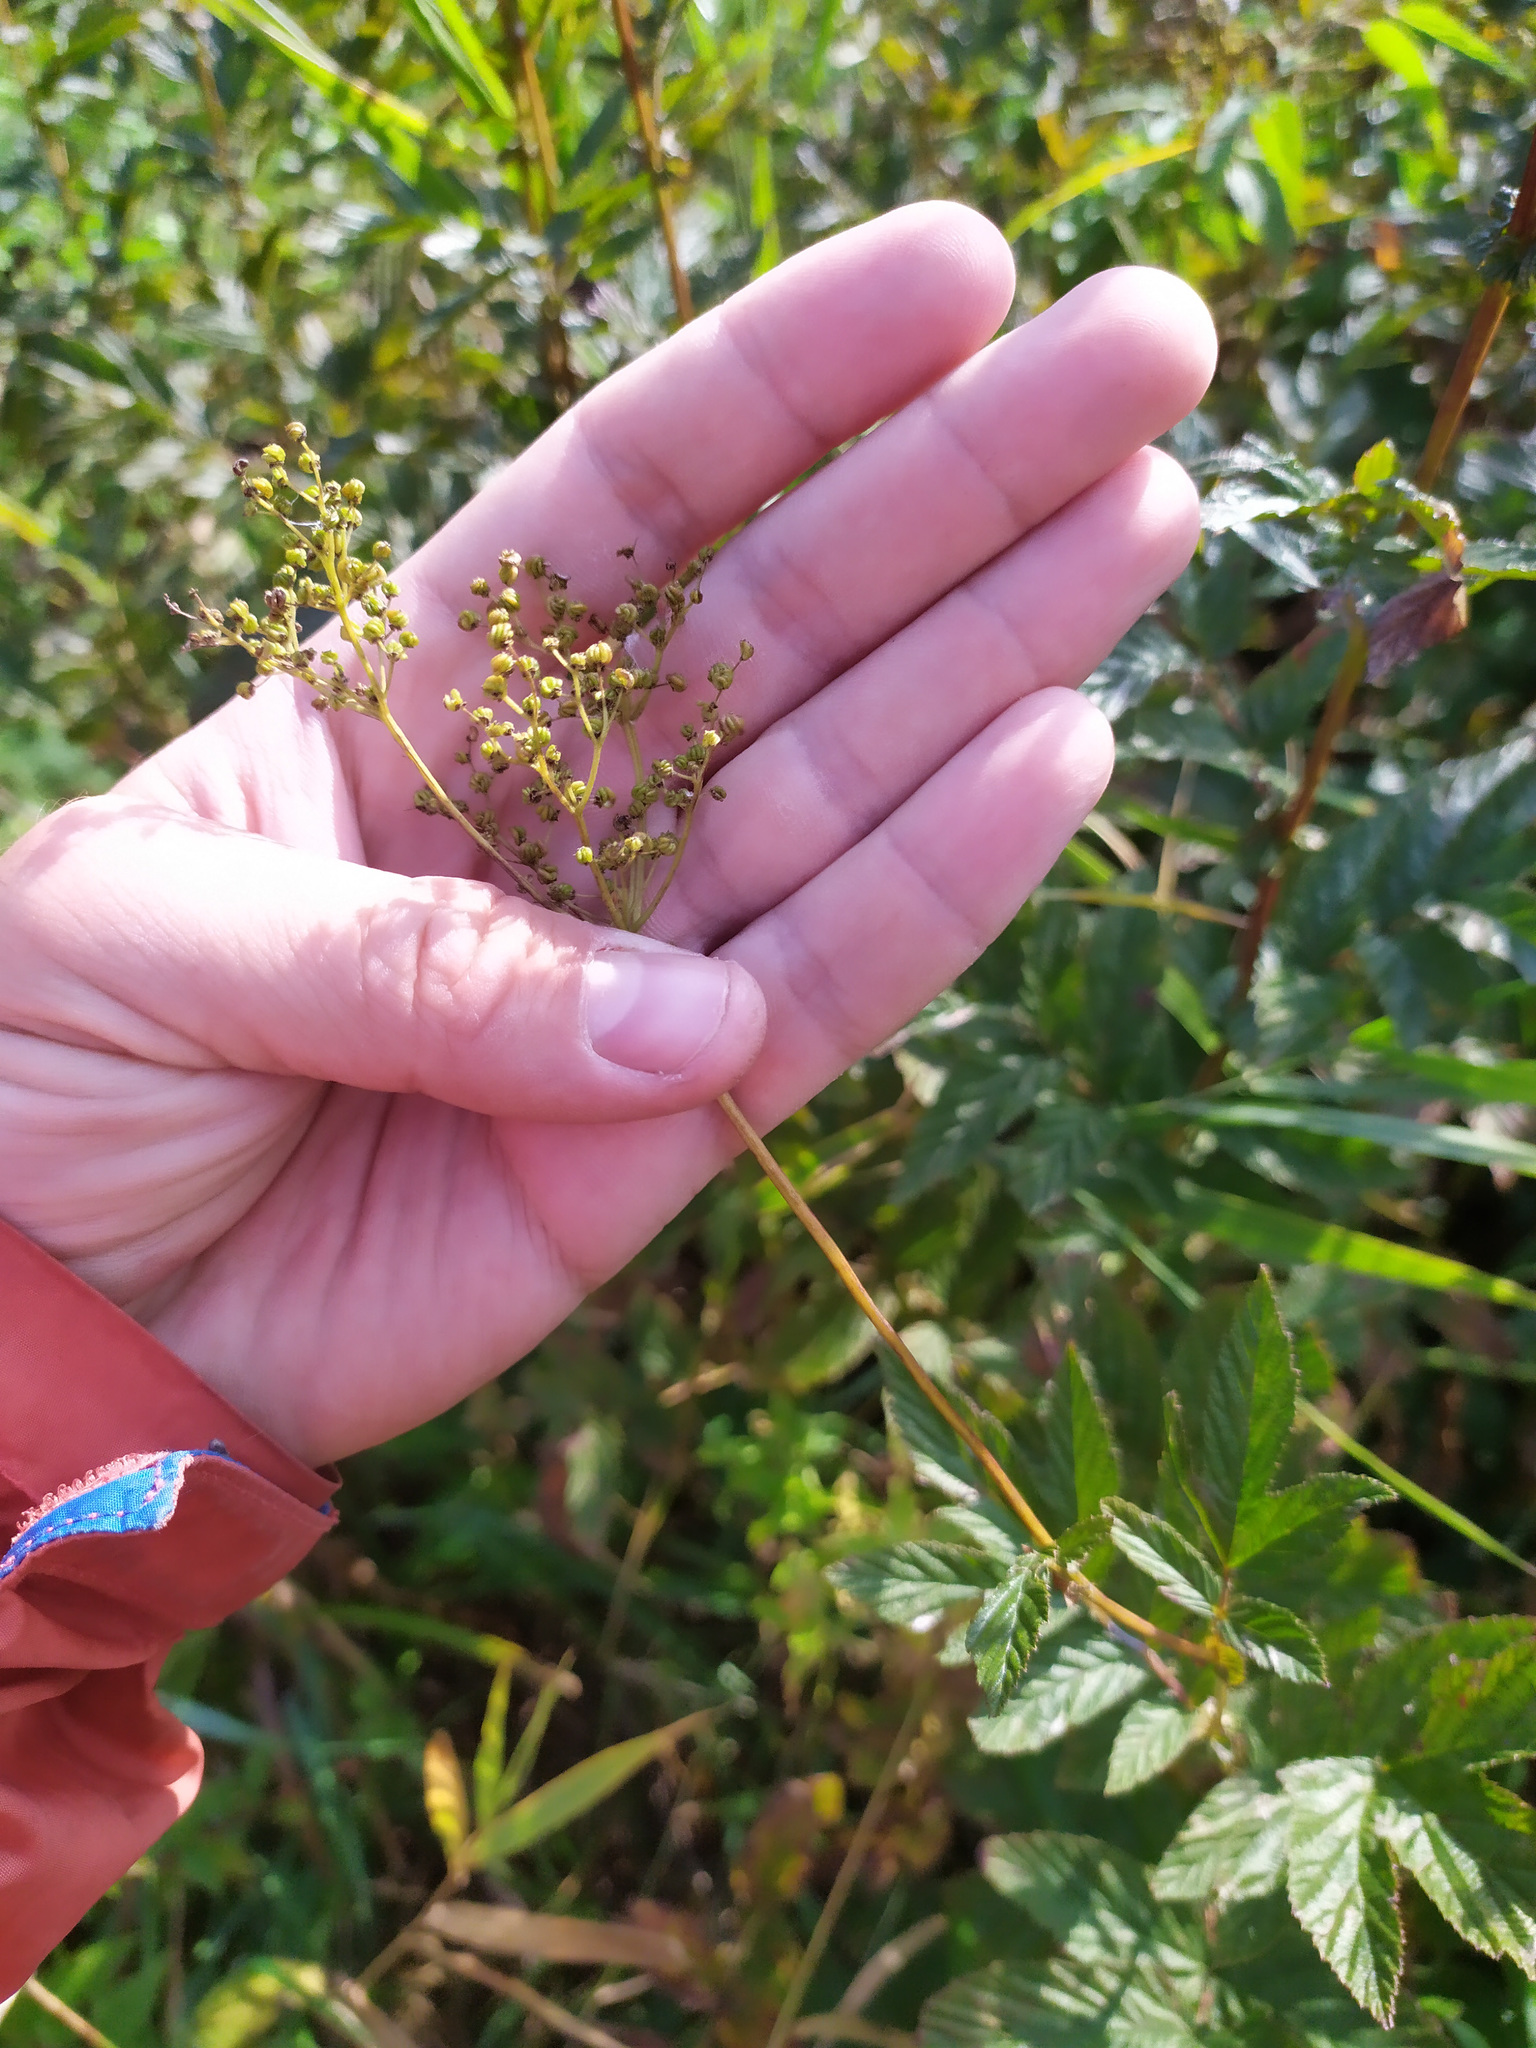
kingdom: Plantae
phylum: Tracheophyta
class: Magnoliopsida
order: Rosales
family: Rosaceae
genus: Filipendula
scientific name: Filipendula ulmaria
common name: Meadowsweet
